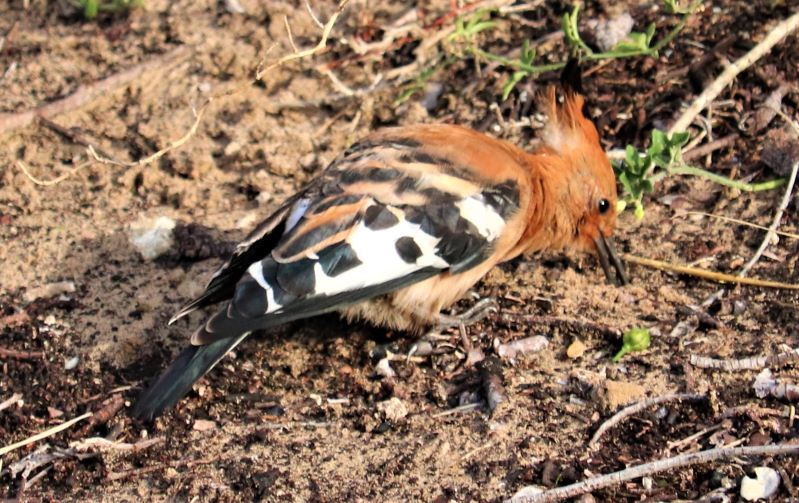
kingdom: Animalia
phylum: Chordata
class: Aves
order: Bucerotiformes
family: Upupidae
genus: Upupa
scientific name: Upupa africana
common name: African hoopoe
